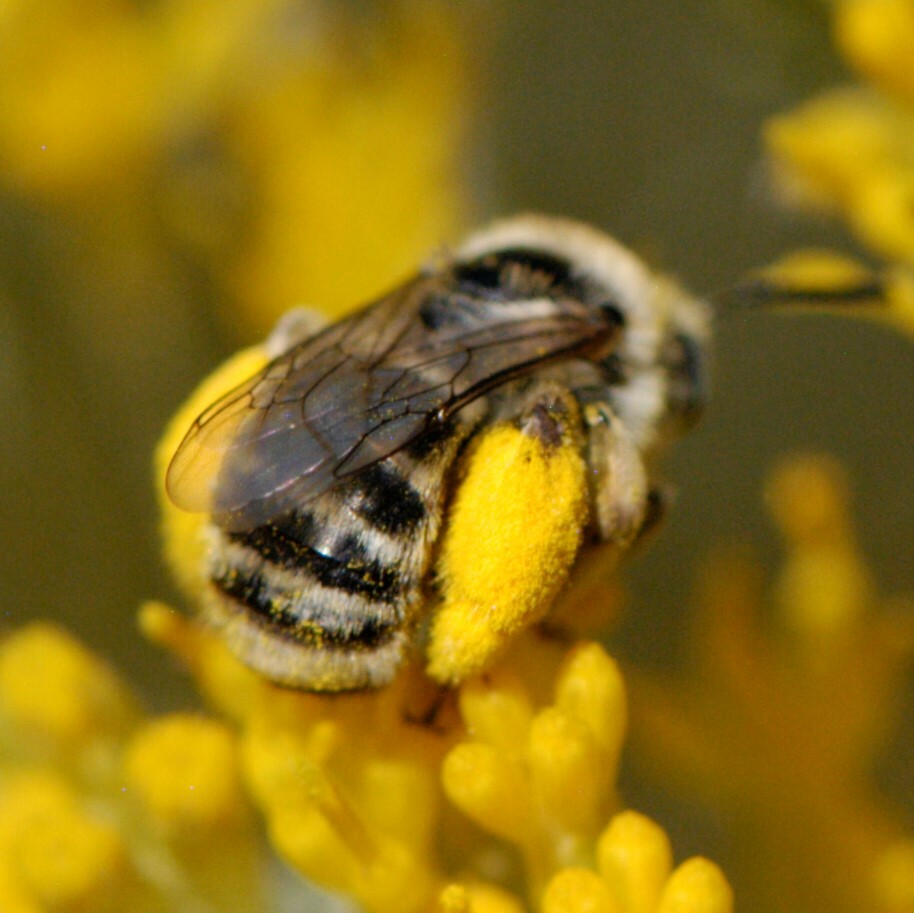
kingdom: Animalia
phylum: Arthropoda
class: Insecta
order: Hymenoptera
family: Apidae
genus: Melissodes
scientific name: Melissodes
